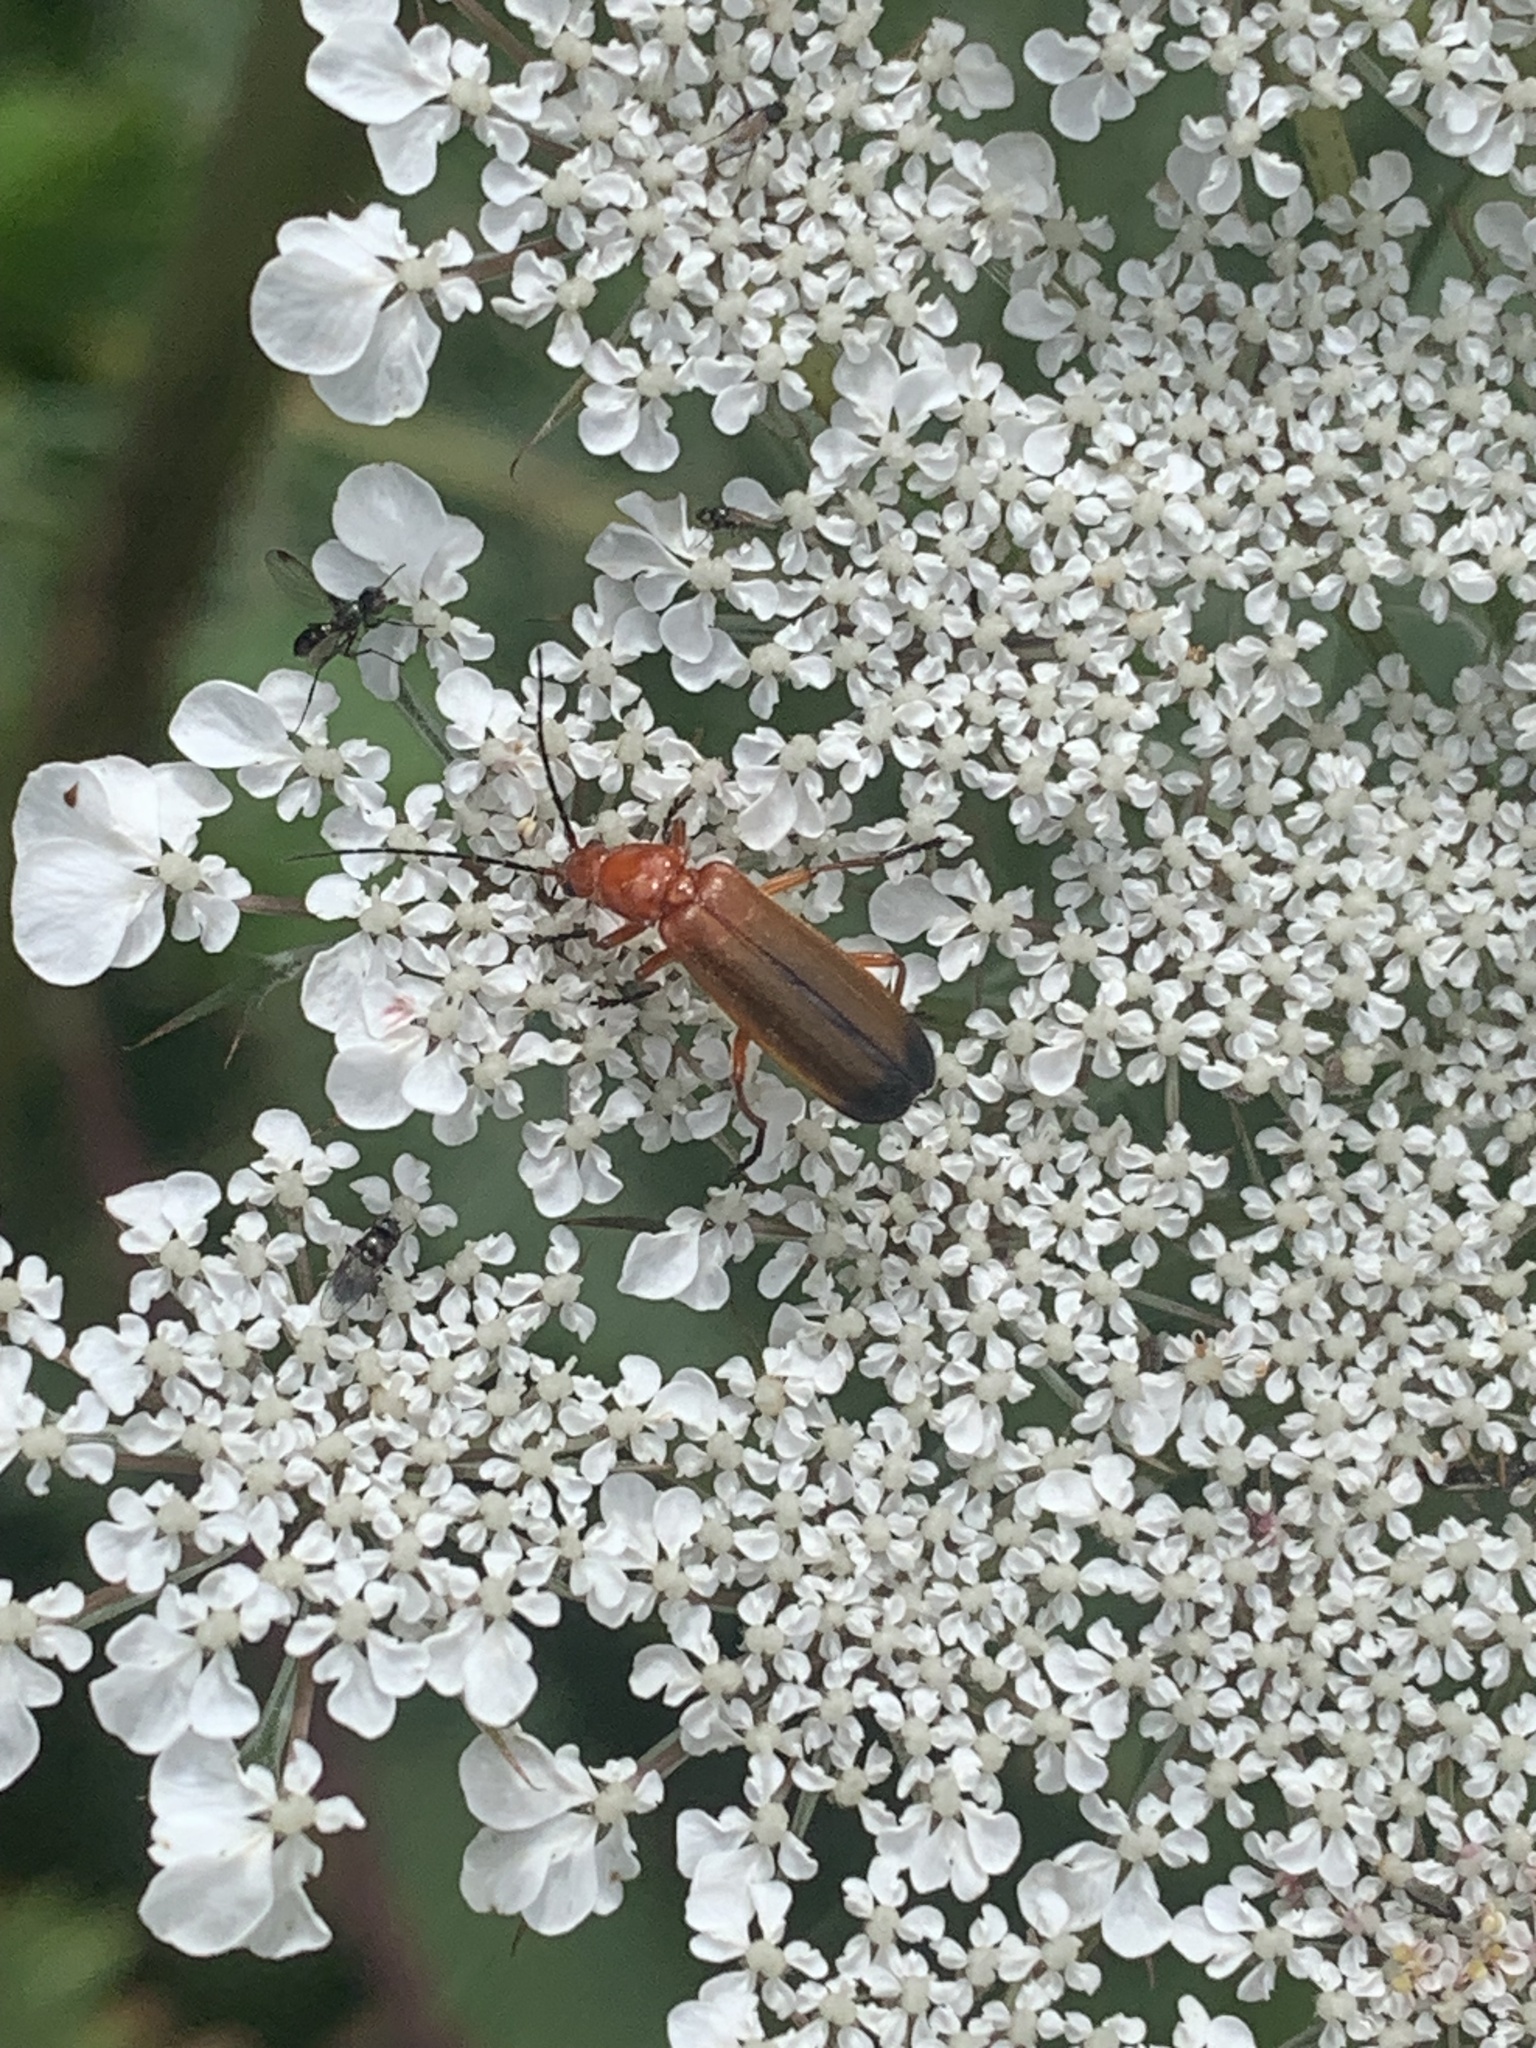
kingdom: Animalia
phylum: Arthropoda
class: Insecta
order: Coleoptera
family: Cantharidae
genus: Rhagonycha
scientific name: Rhagonycha fulva
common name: Common red soldier beetle
